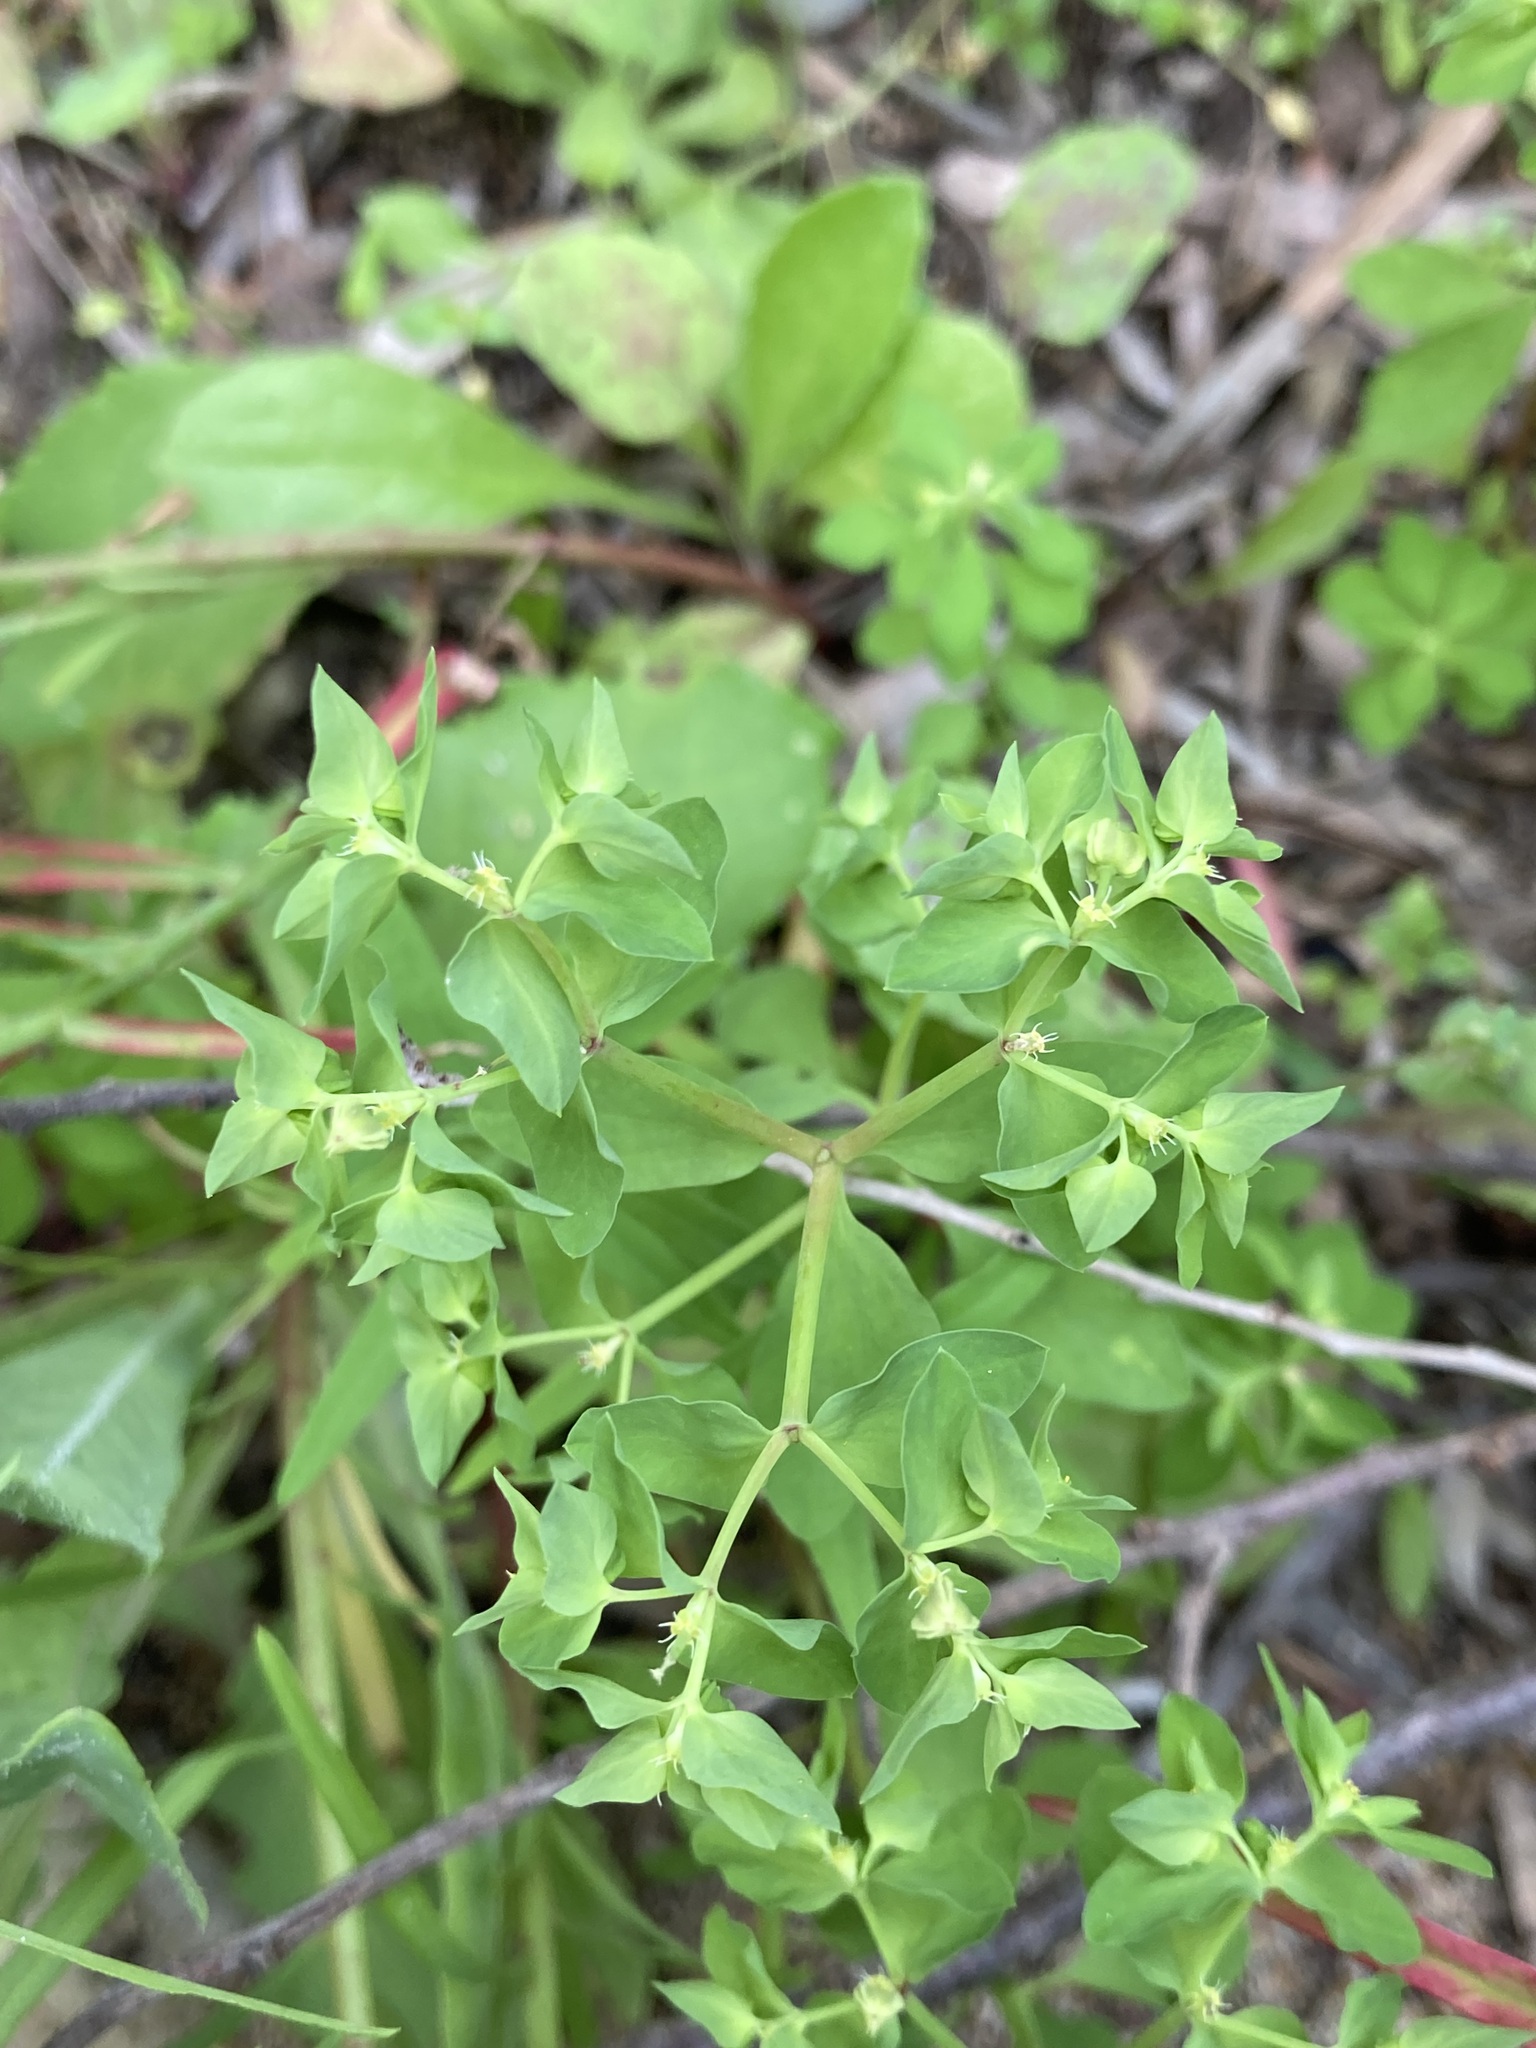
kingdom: Plantae
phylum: Tracheophyta
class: Magnoliopsida
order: Malpighiales
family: Euphorbiaceae
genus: Euphorbia
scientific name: Euphorbia peplus
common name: Petty spurge
